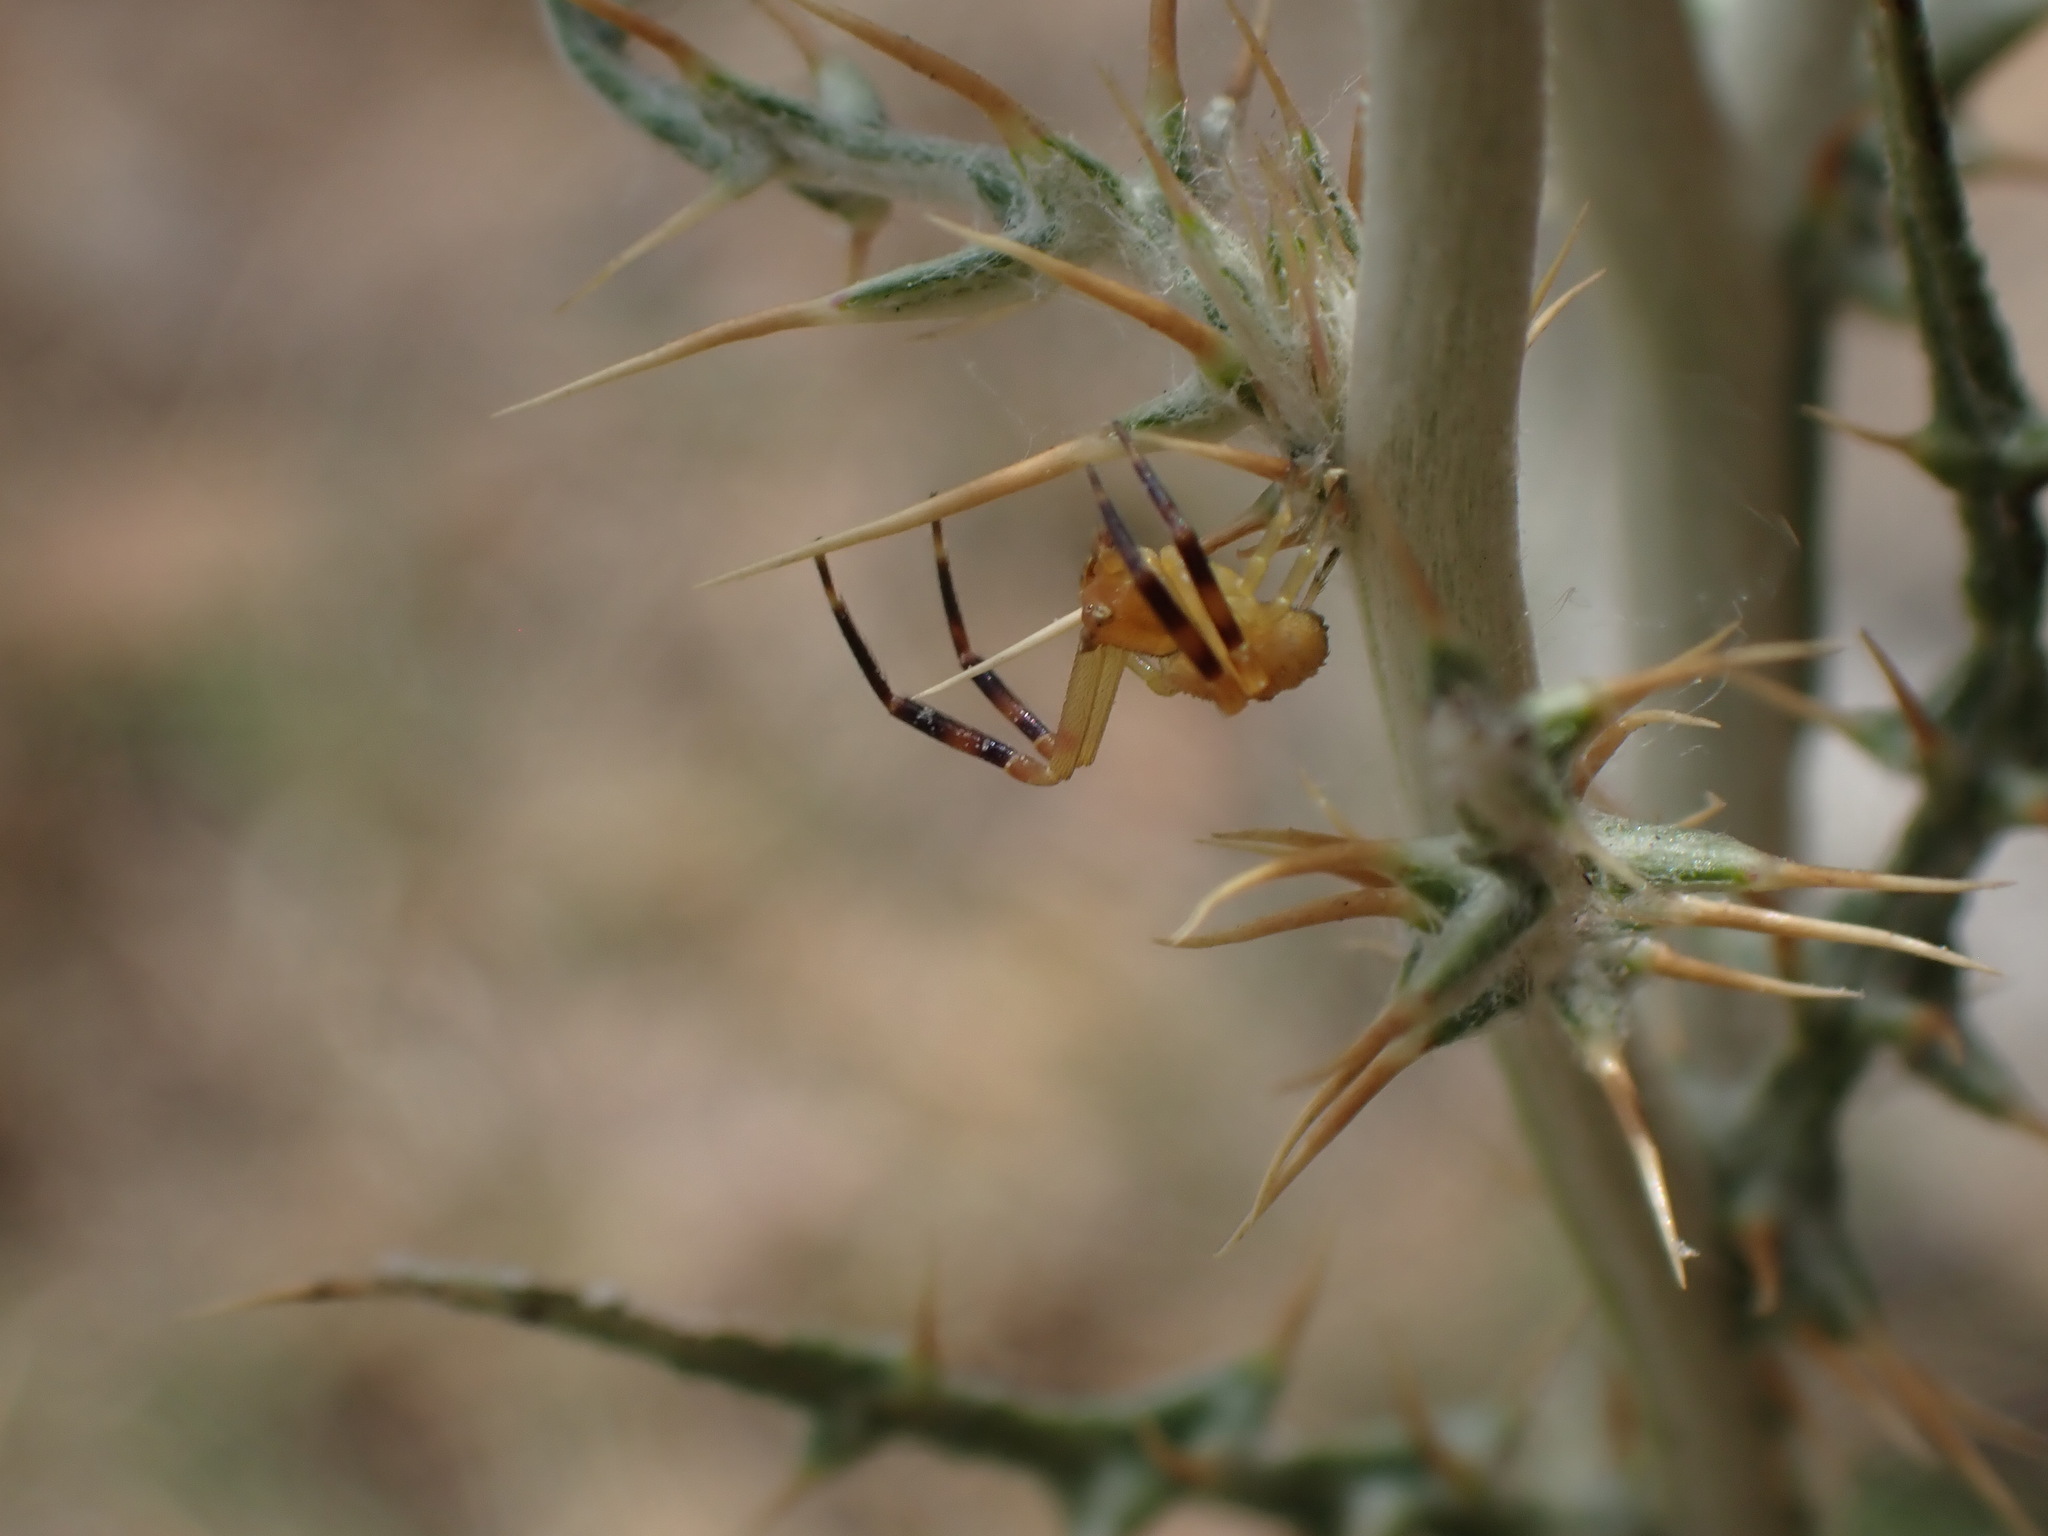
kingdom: Animalia
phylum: Arthropoda
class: Arachnida
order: Araneae
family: Thomisidae
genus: Thomisus
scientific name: Thomisus onustus
